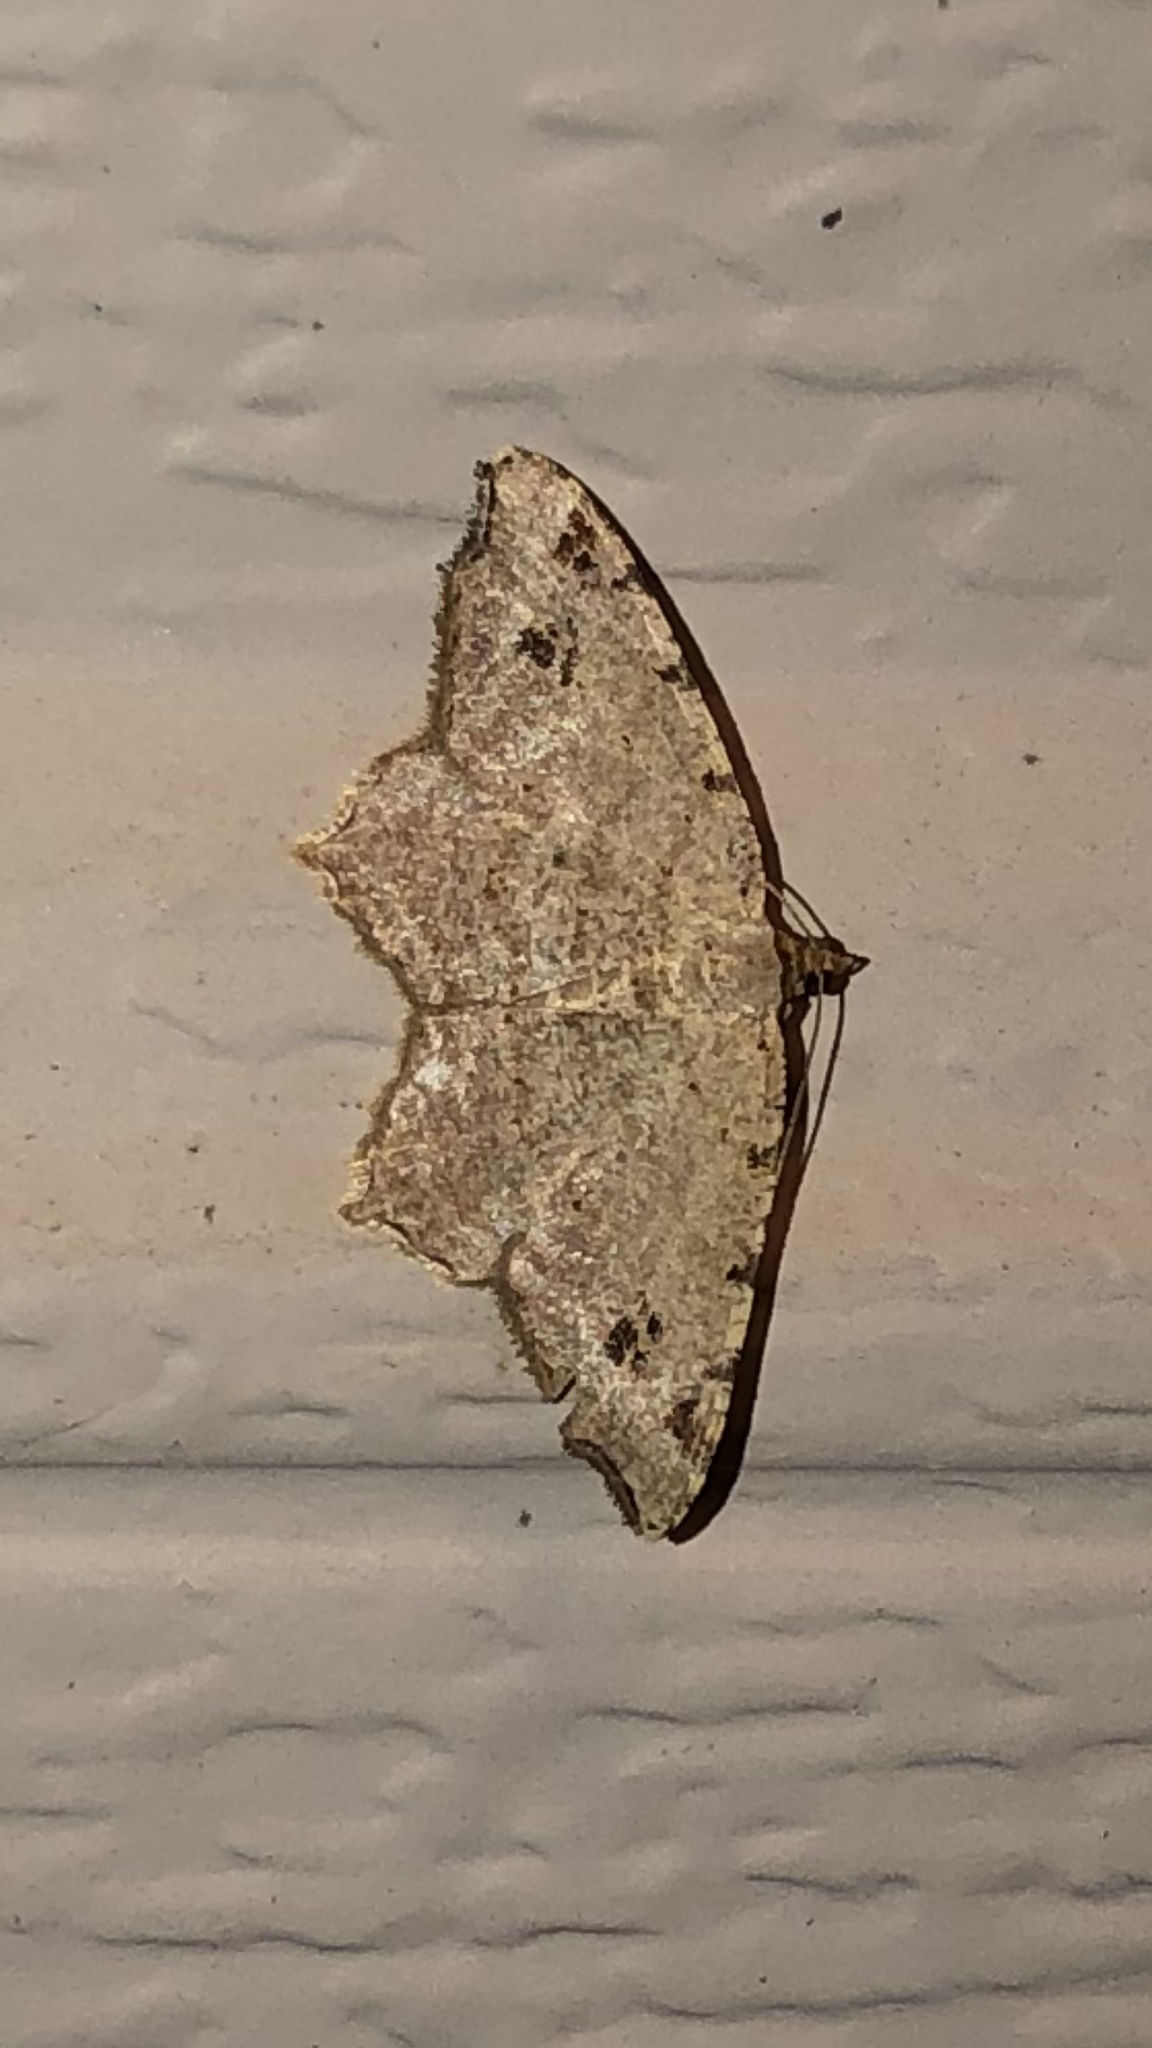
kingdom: Animalia
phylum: Arthropoda
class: Insecta
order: Lepidoptera
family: Geometridae
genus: Macaria
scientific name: Macaria aemulataria
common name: Common angle
